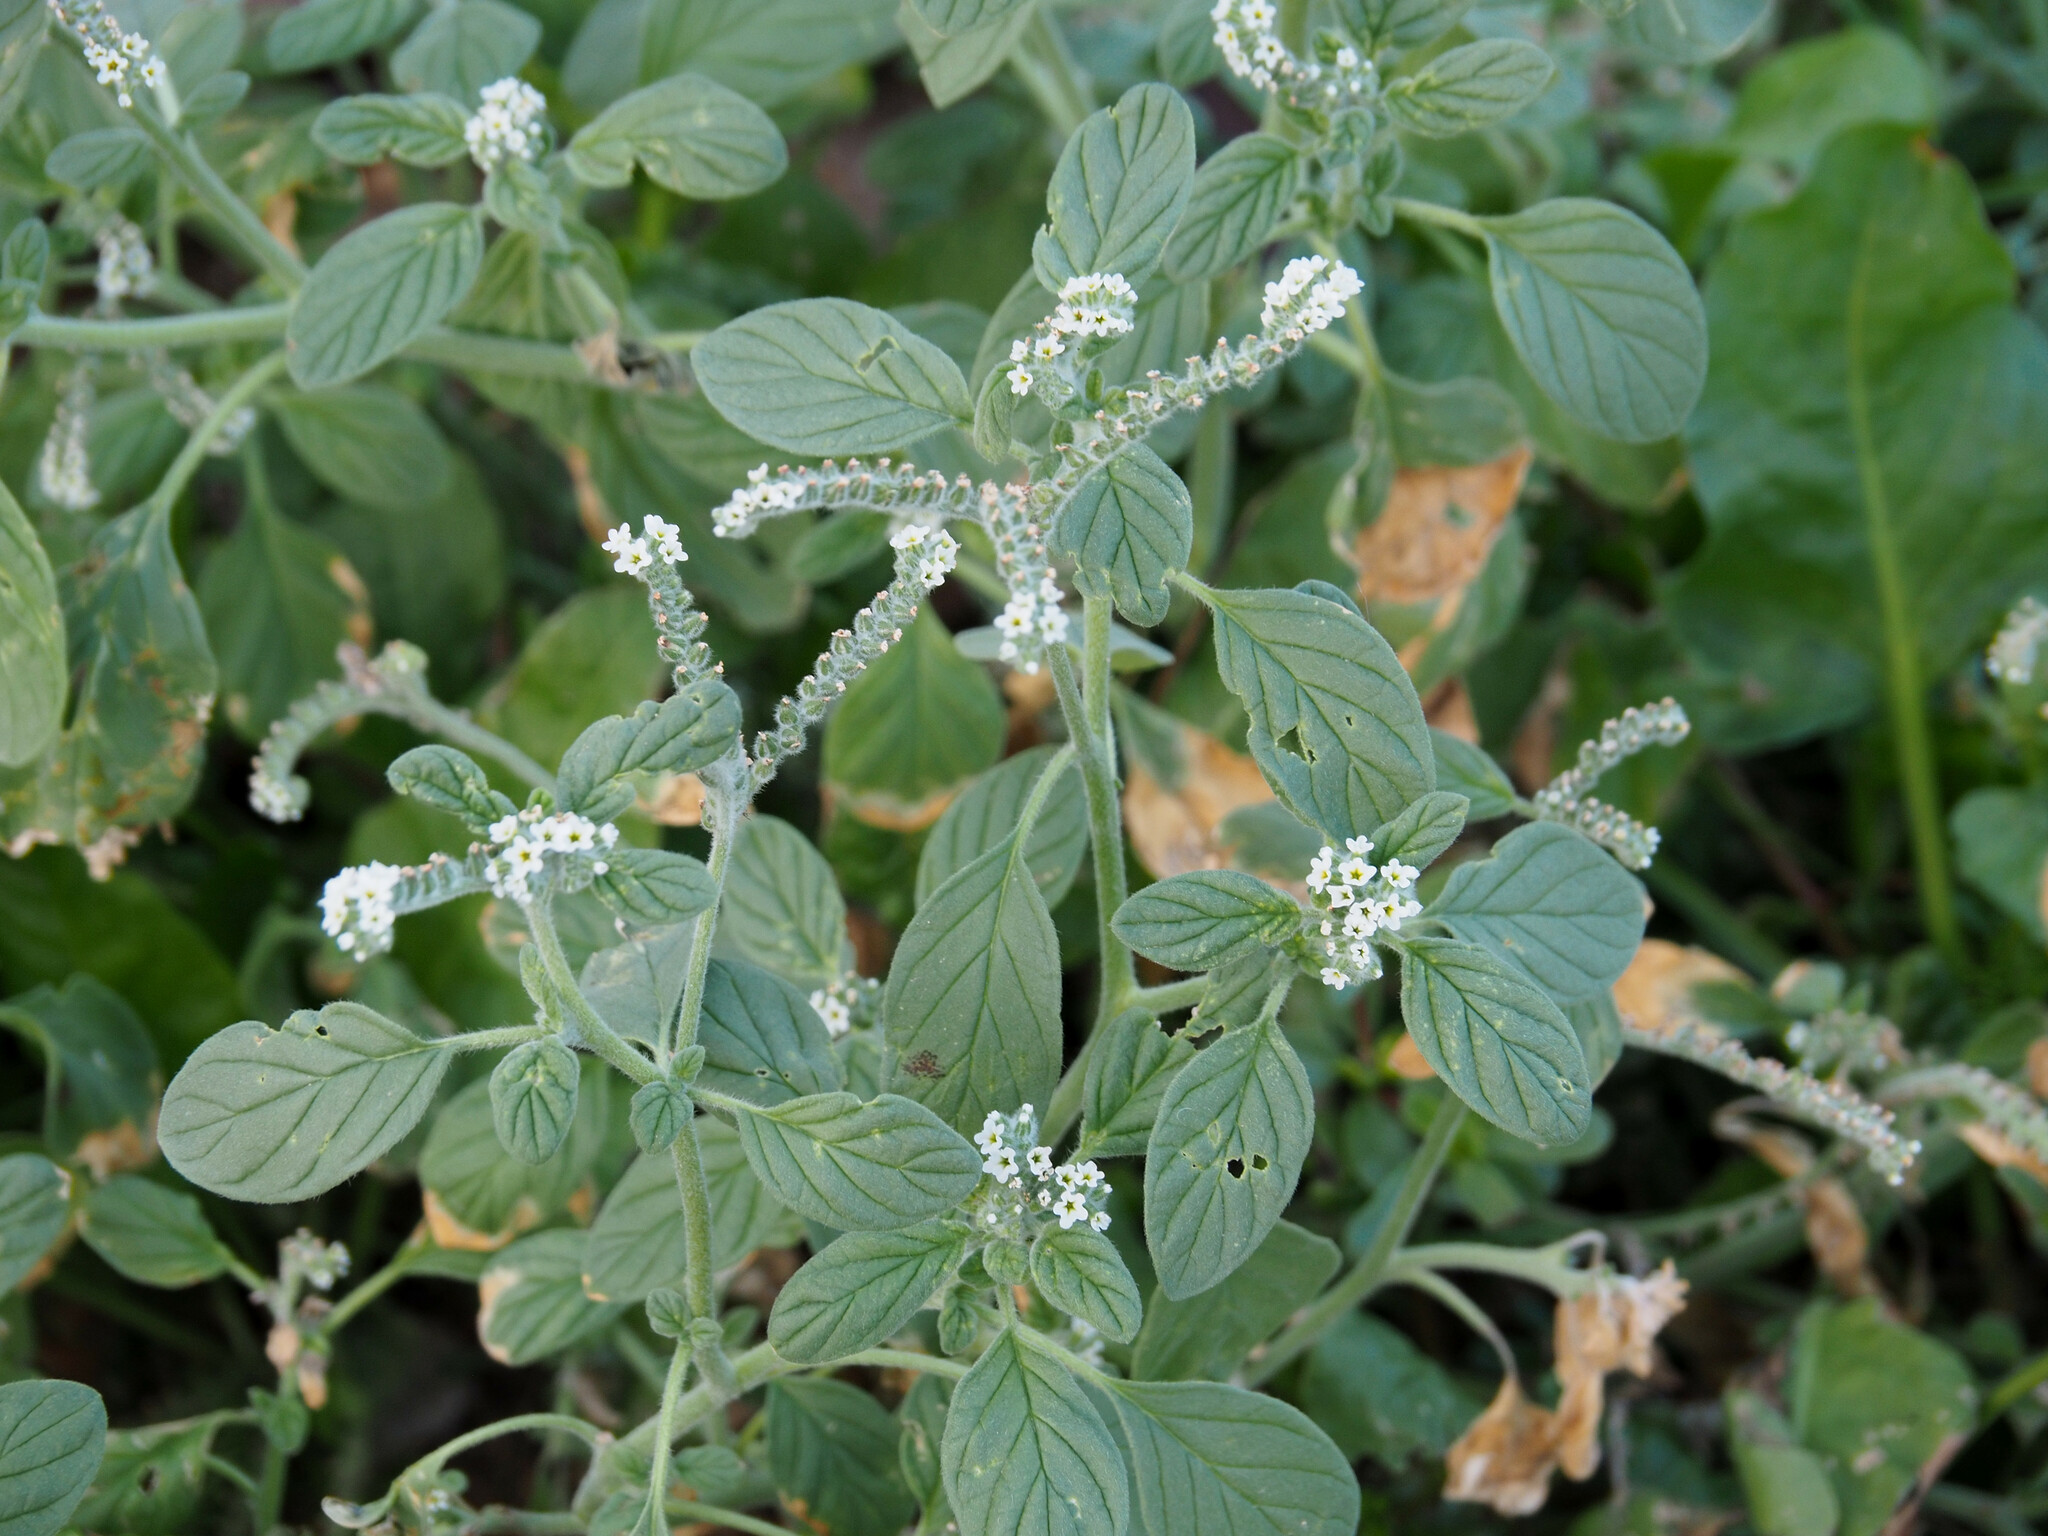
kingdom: Plantae
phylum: Tracheophyta
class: Magnoliopsida
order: Boraginales
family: Heliotropiaceae
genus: Heliotropium
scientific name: Heliotropium europaeum
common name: European heliotrope
